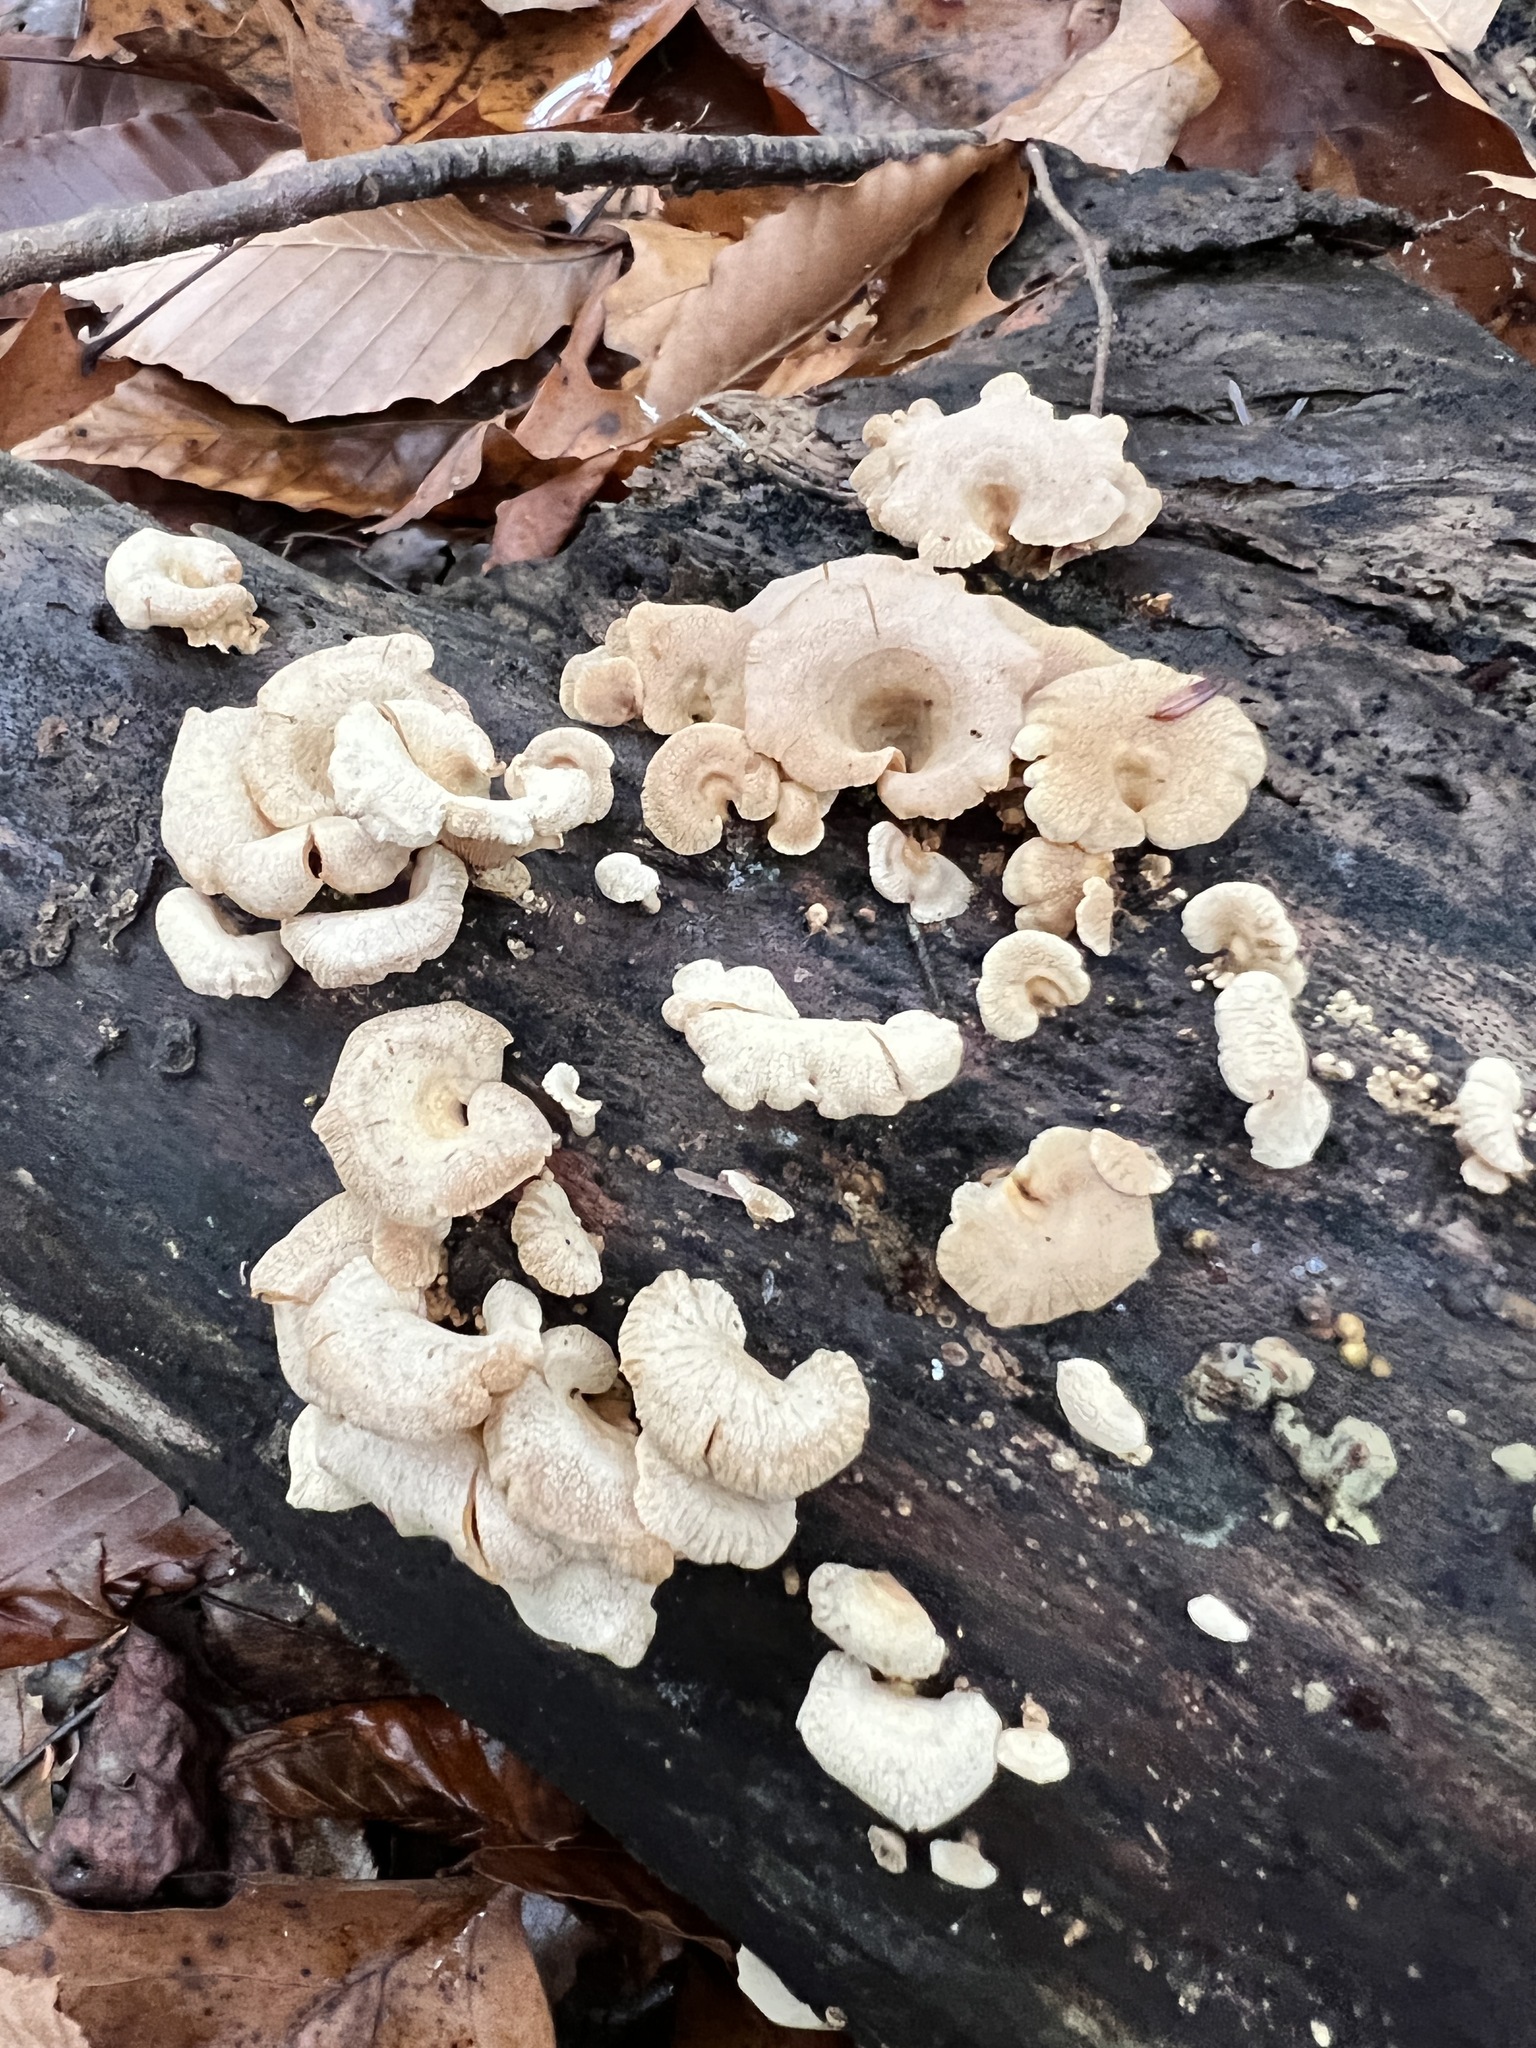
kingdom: Fungi
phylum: Basidiomycota
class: Agaricomycetes
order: Agaricales
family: Mycenaceae
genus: Panellus
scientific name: Panellus stipticus
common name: Bitter oysterling
